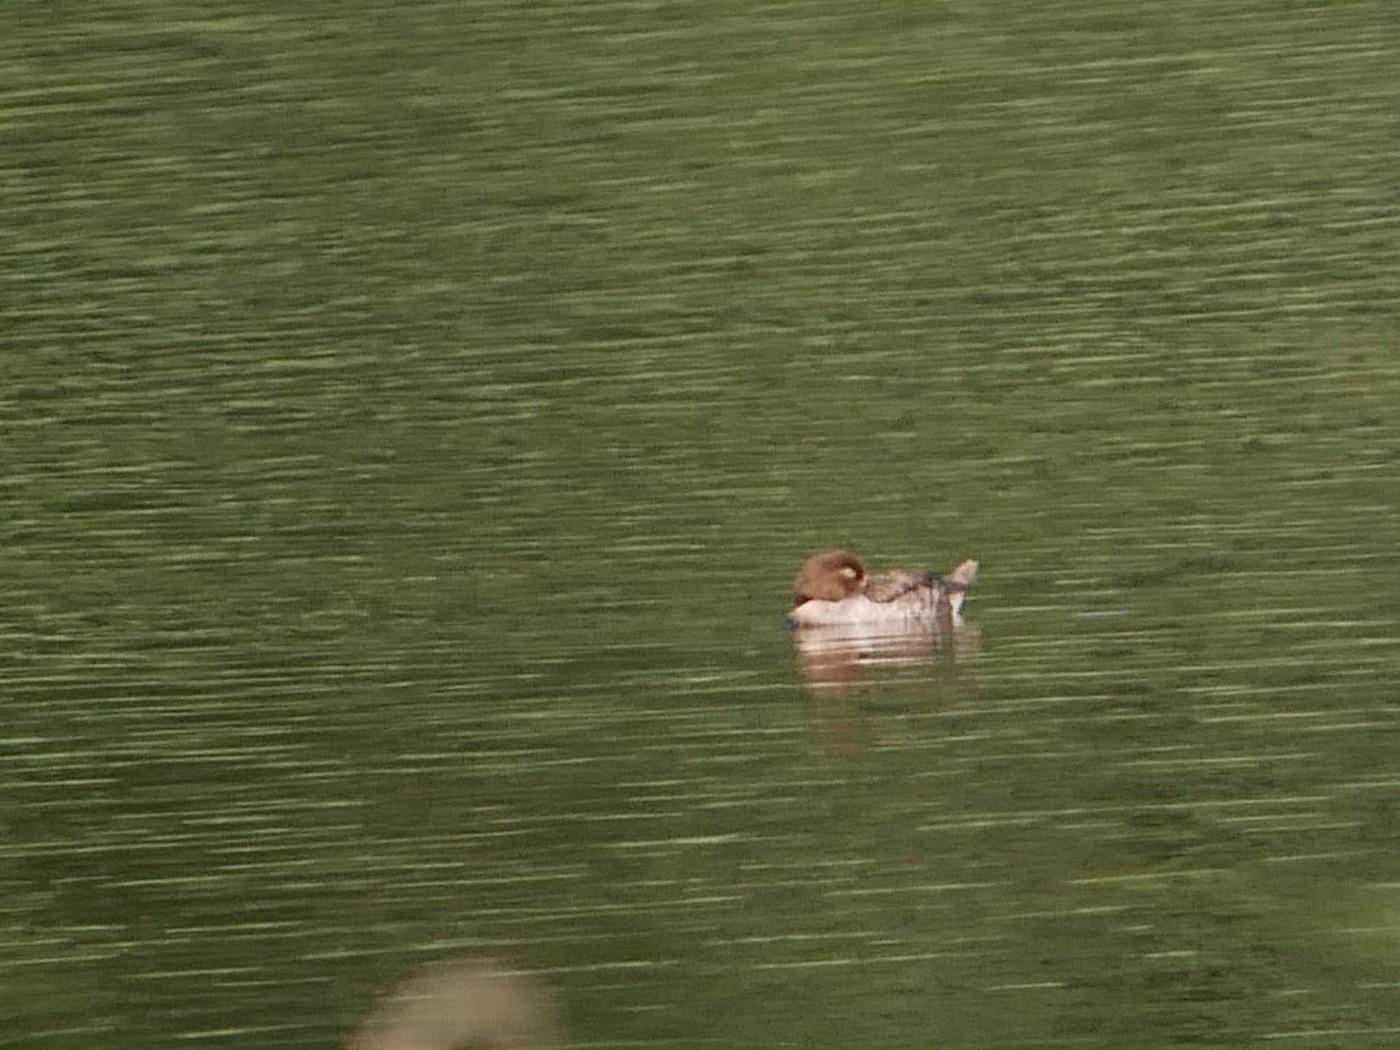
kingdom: Animalia
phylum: Chordata
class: Aves
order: Anseriformes
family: Anatidae
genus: Bucephala
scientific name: Bucephala clangula
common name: Common goldeneye
